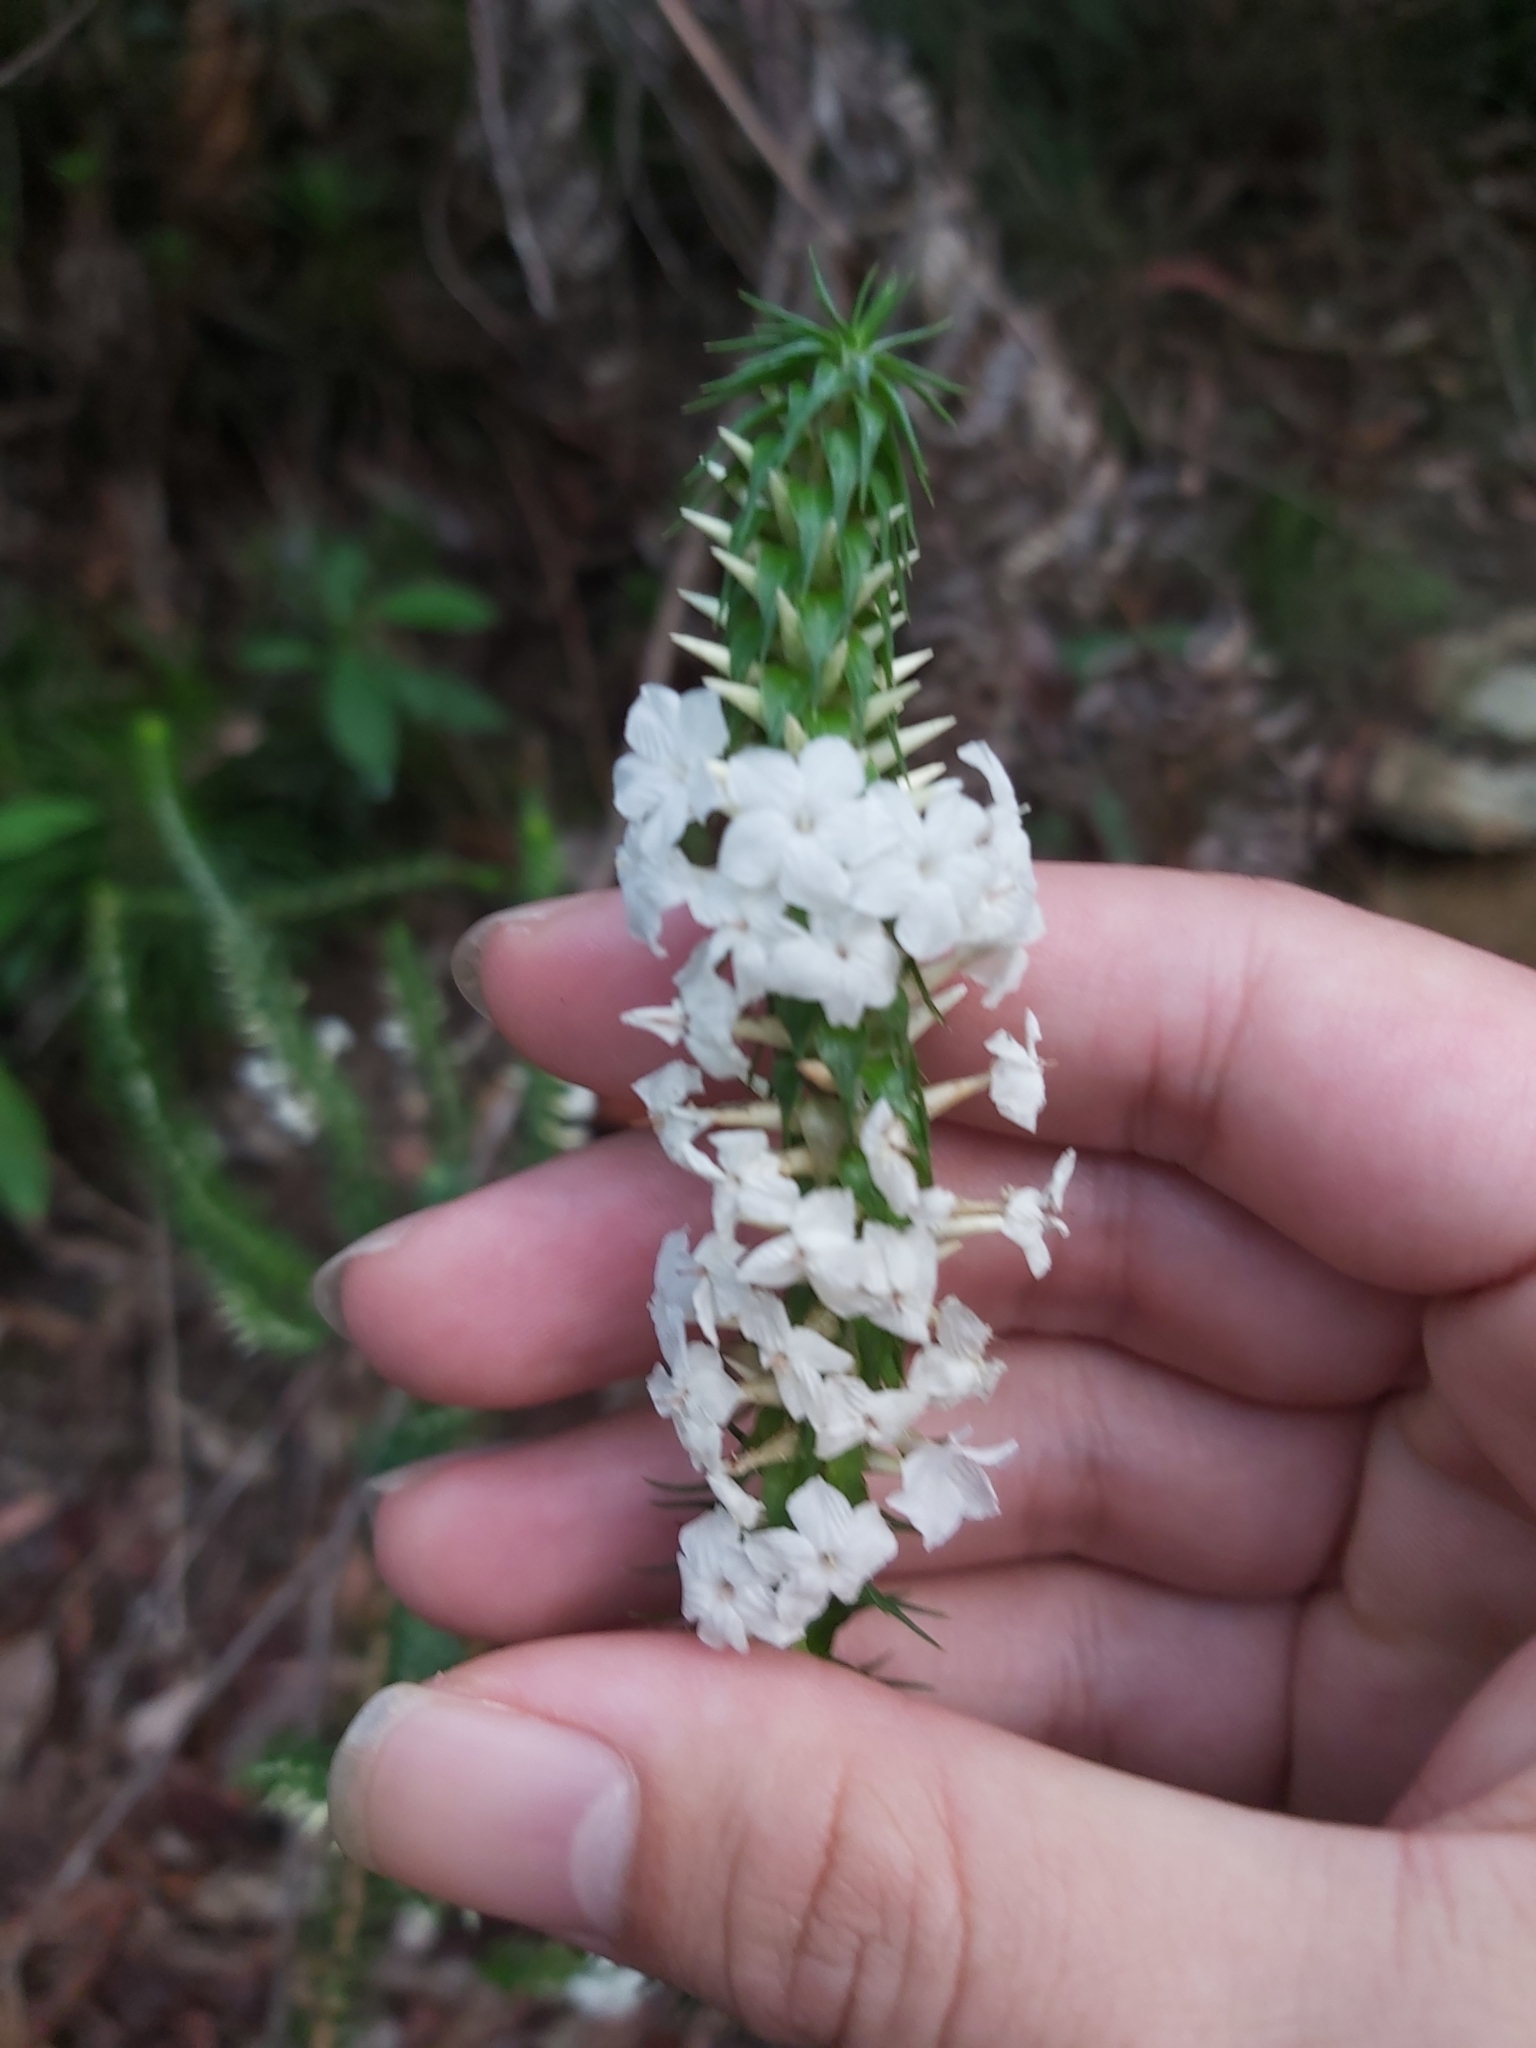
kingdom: Plantae
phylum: Tracheophyta
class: Magnoliopsida
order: Ericales
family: Ericaceae
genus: Woollsia
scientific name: Woollsia pungens
